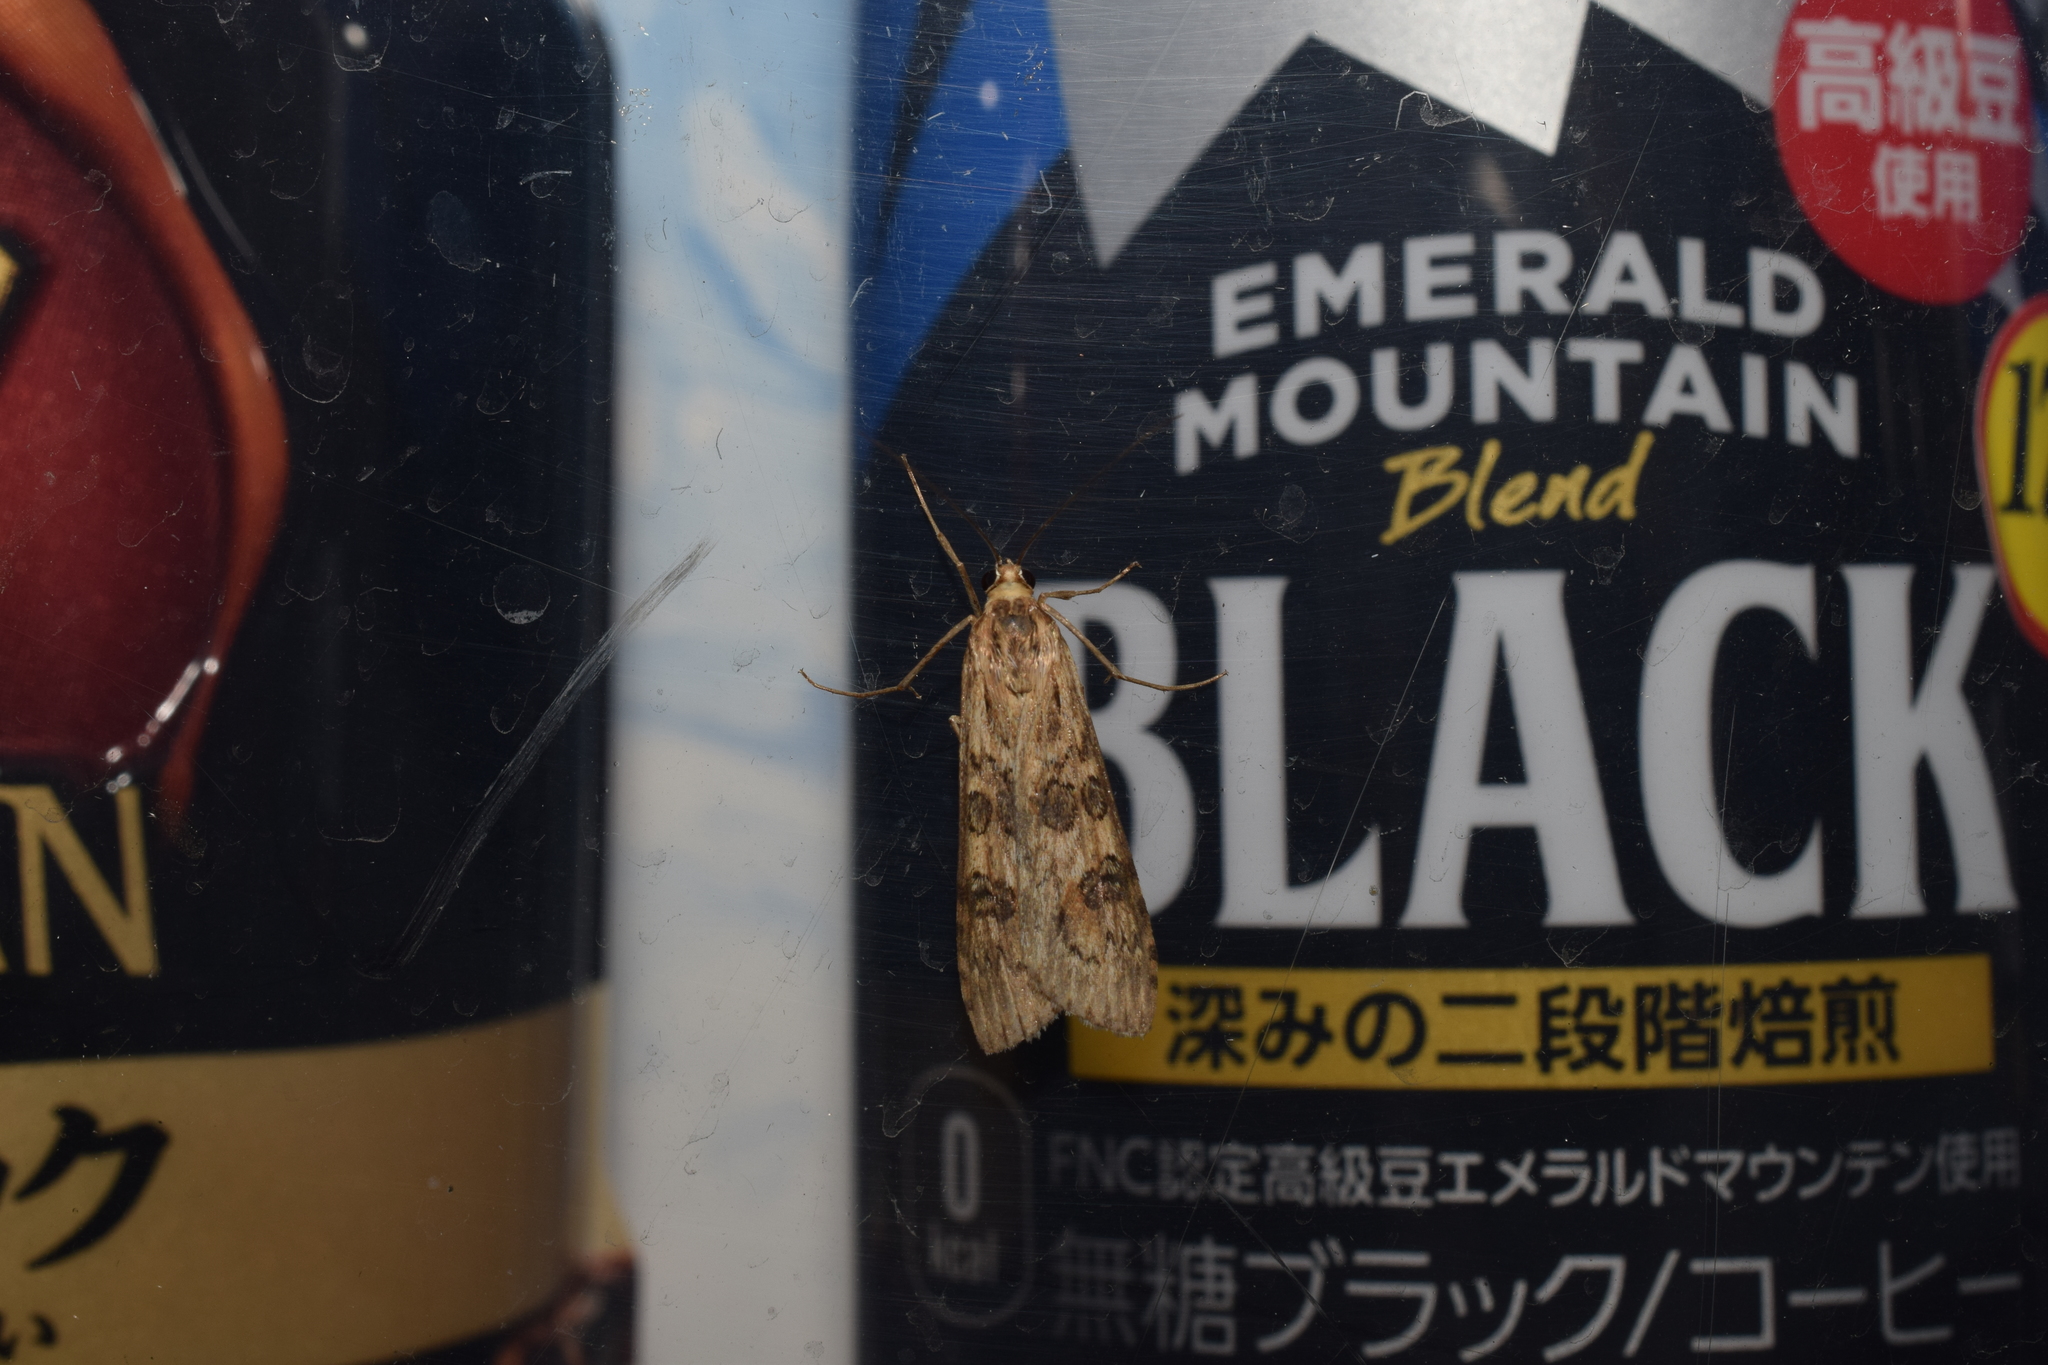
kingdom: Animalia
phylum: Arthropoda
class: Insecta
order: Lepidoptera
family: Crambidae
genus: Nomophila
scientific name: Nomophila noctuella
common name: Rush veneer
